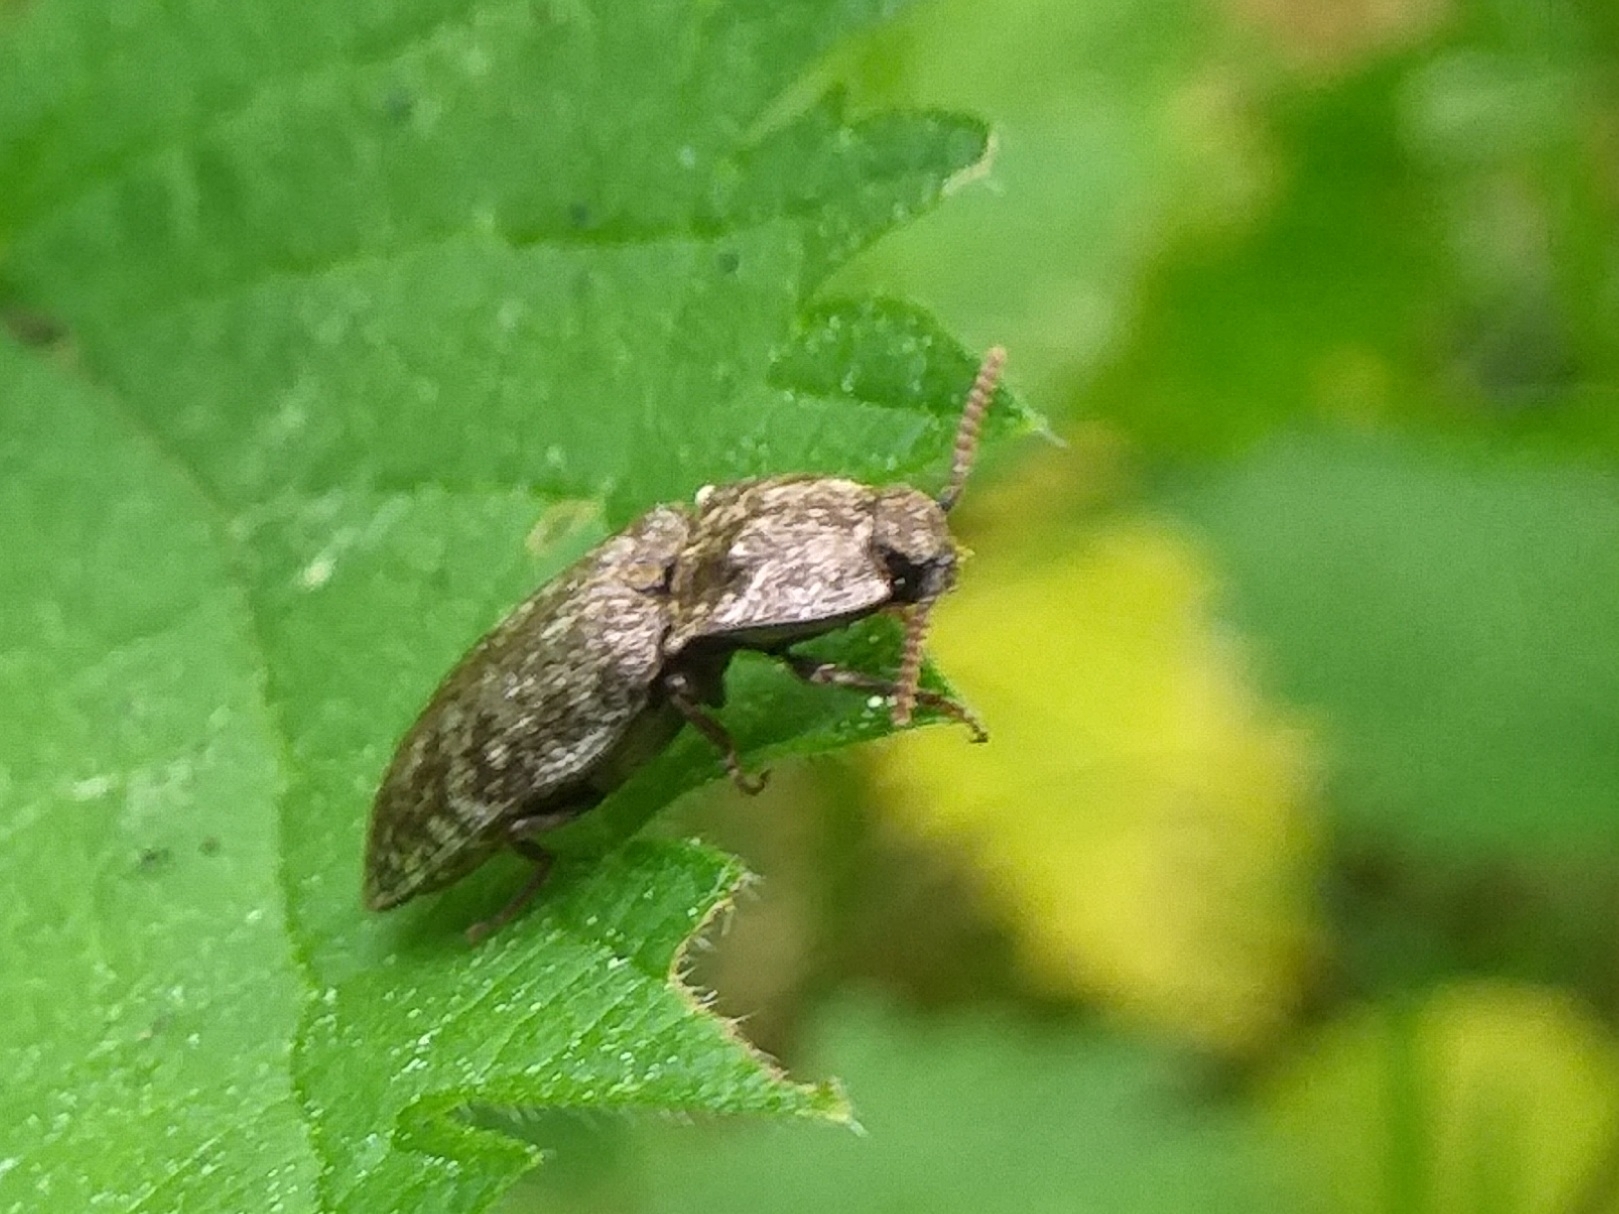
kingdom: Animalia
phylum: Arthropoda
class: Insecta
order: Coleoptera
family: Elateridae
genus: Agrypnus
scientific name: Agrypnus murinus
